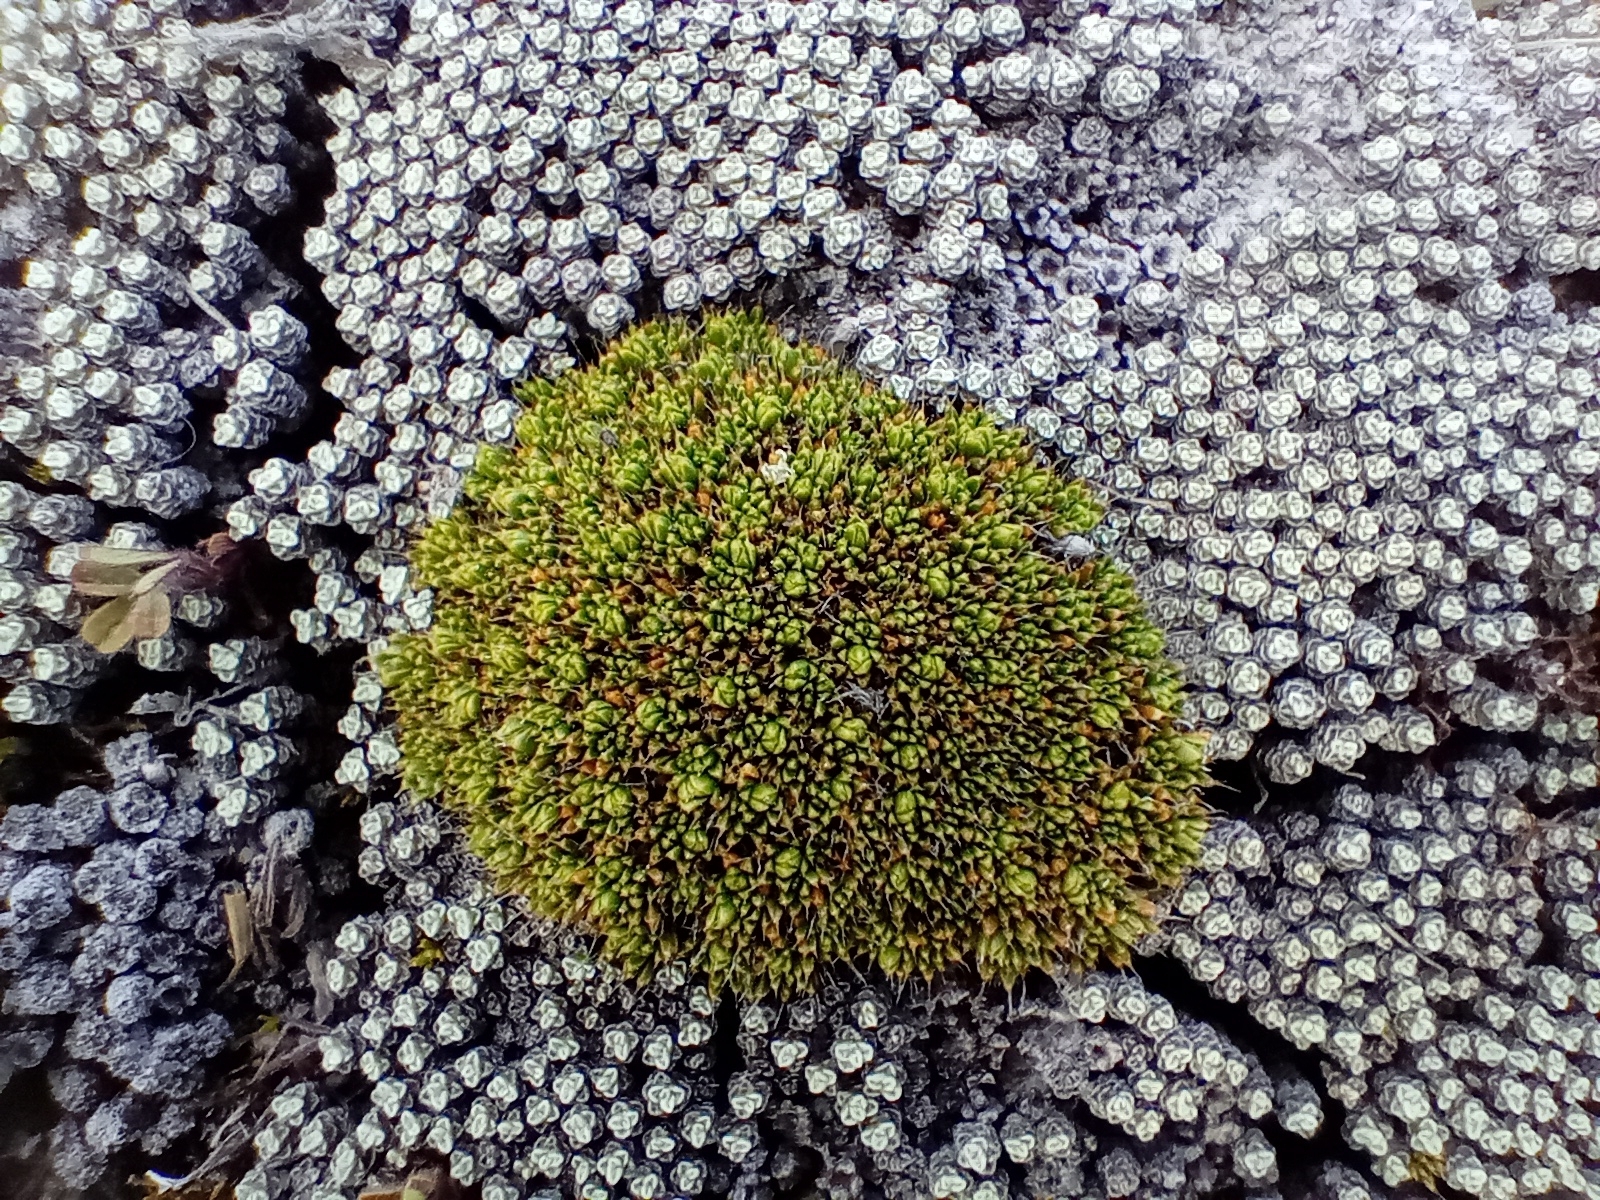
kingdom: Plantae
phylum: Tracheophyta
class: Magnoliopsida
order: Caryophyllales
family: Caryophyllaceae
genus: Colobanthus
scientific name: Colobanthus brevisepalus
